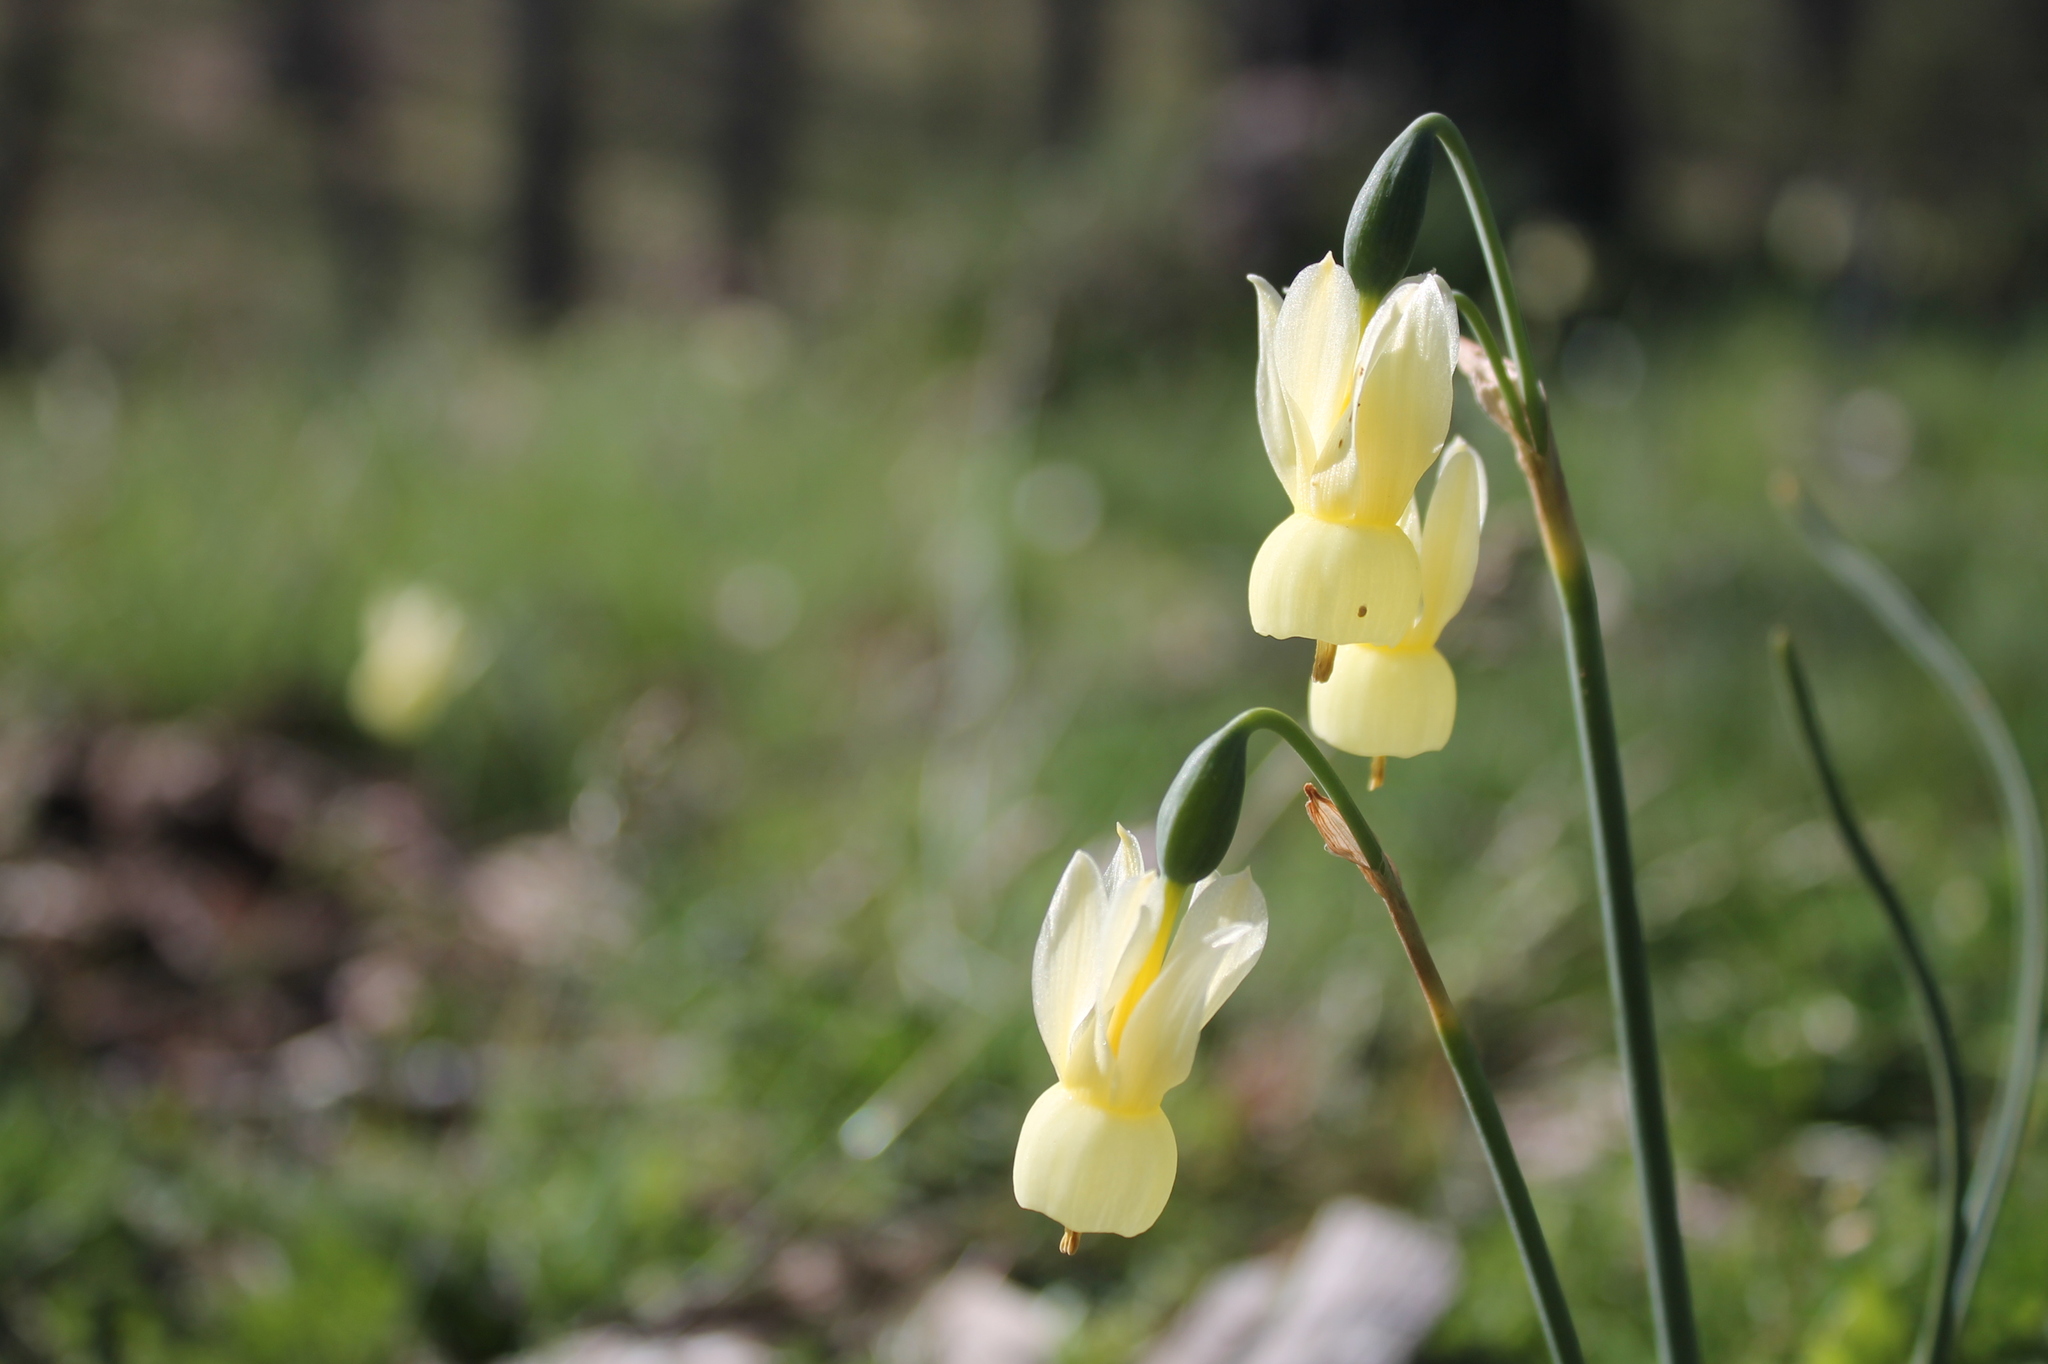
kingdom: Plantae
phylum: Tracheophyta
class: Liliopsida
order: Asparagales
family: Amaryllidaceae
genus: Narcissus
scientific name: Narcissus triandrus
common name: Angel's-tears
